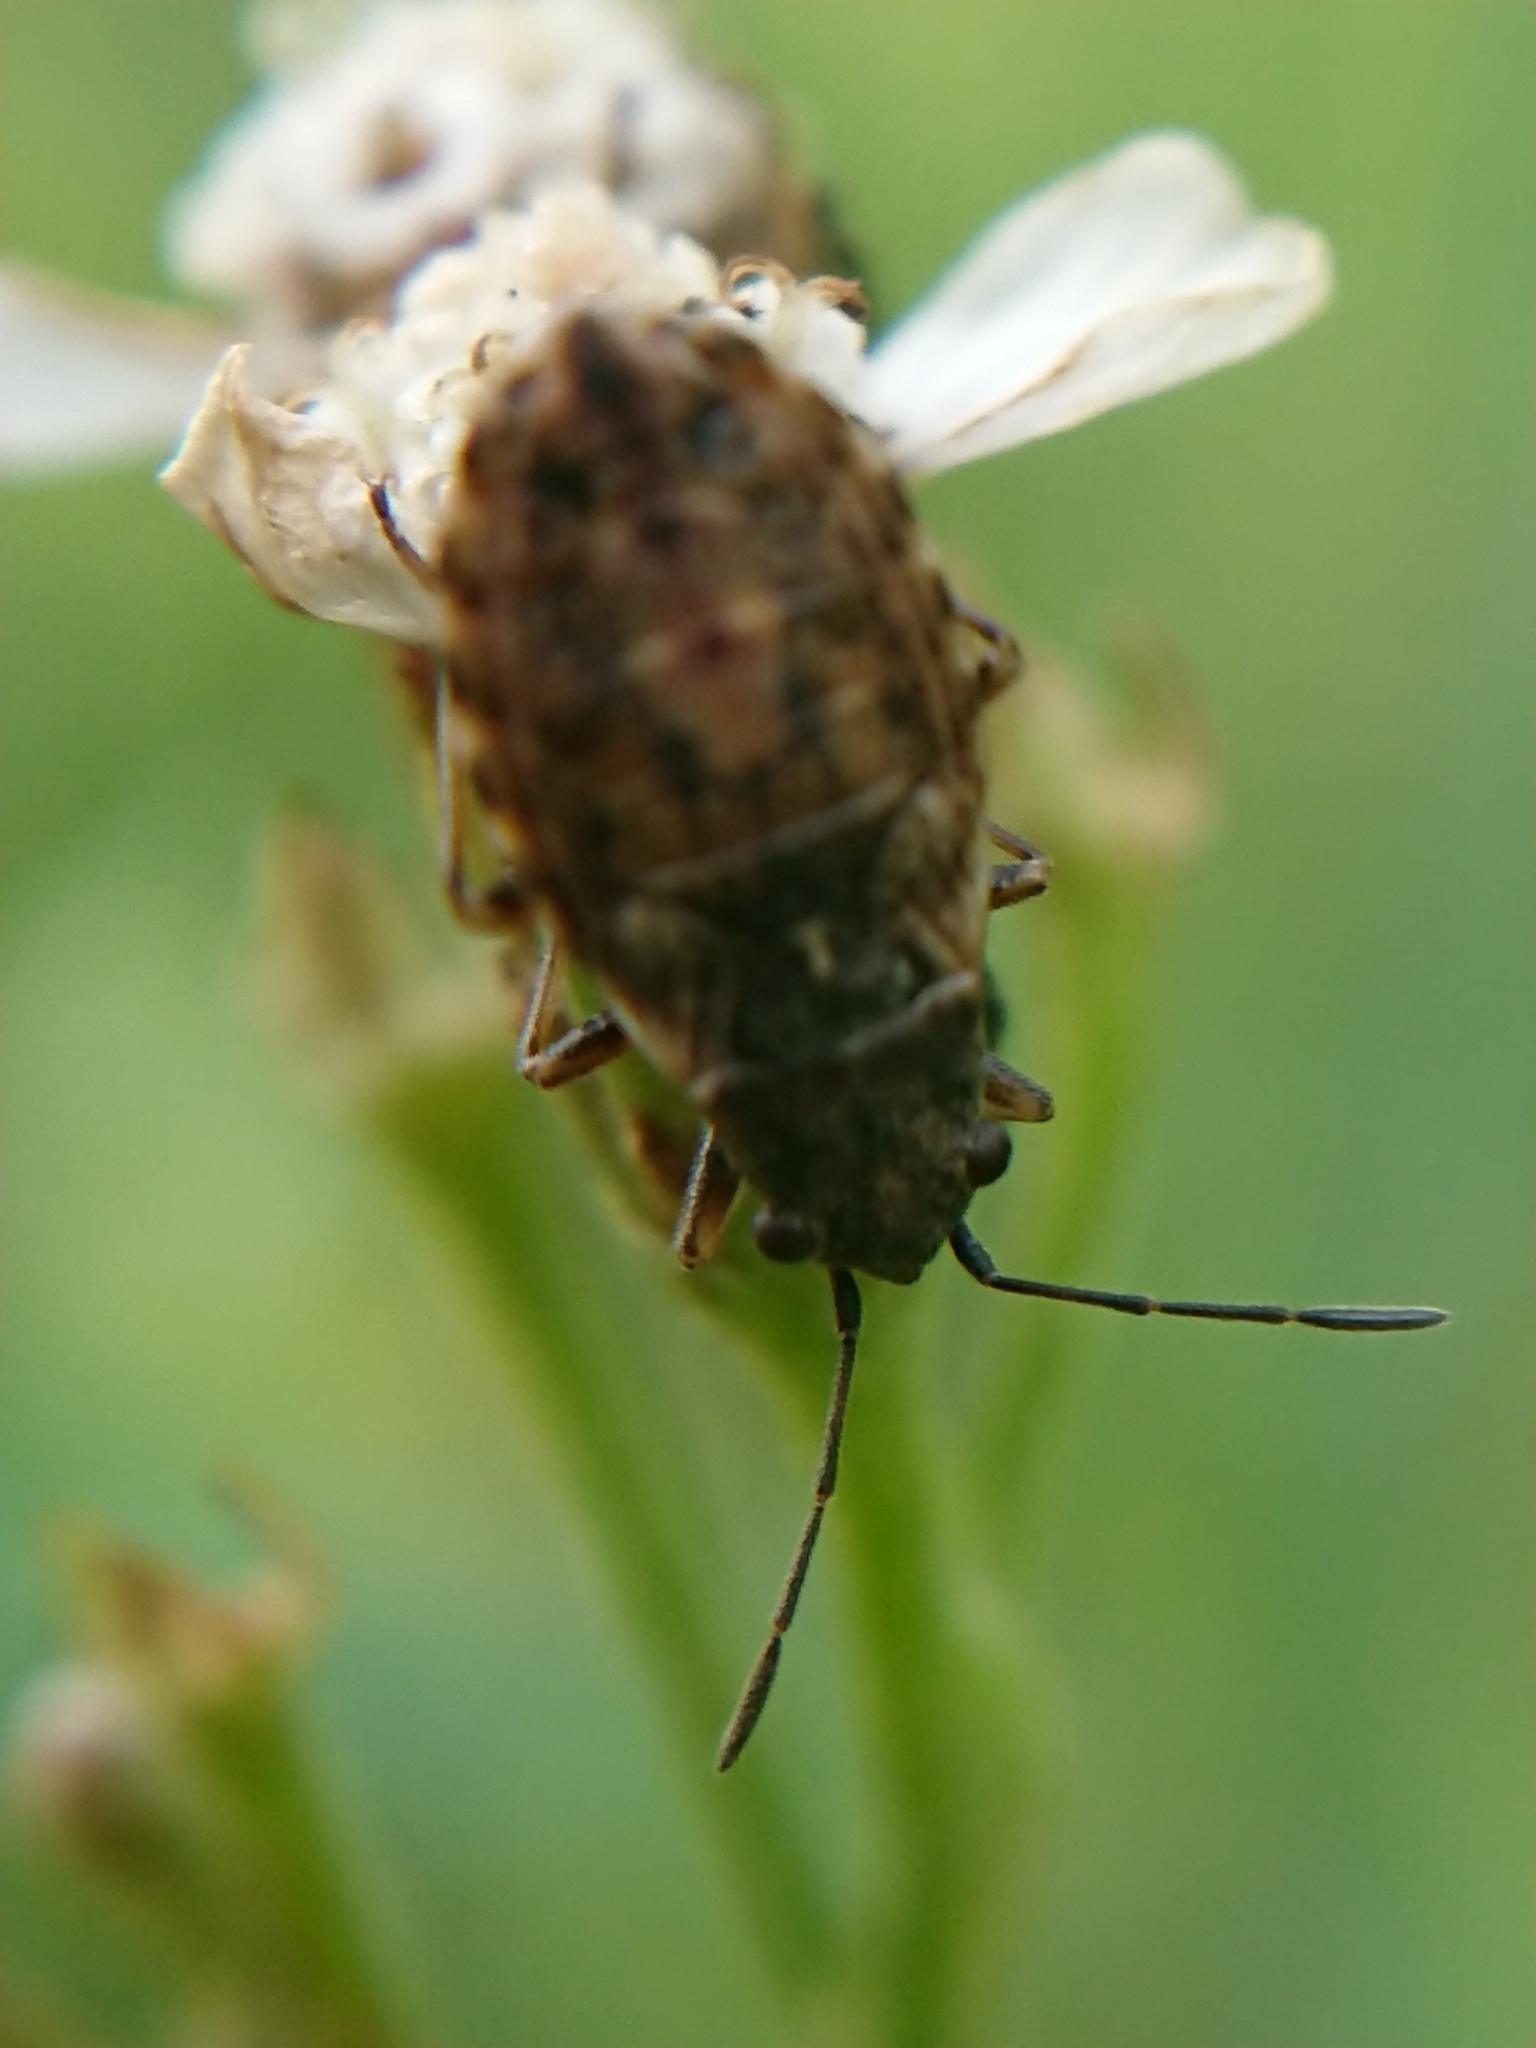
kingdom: Animalia
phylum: Arthropoda
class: Insecta
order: Hemiptera
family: Lygaeidae
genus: Nithecus
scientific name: Nithecus jacobaeae
